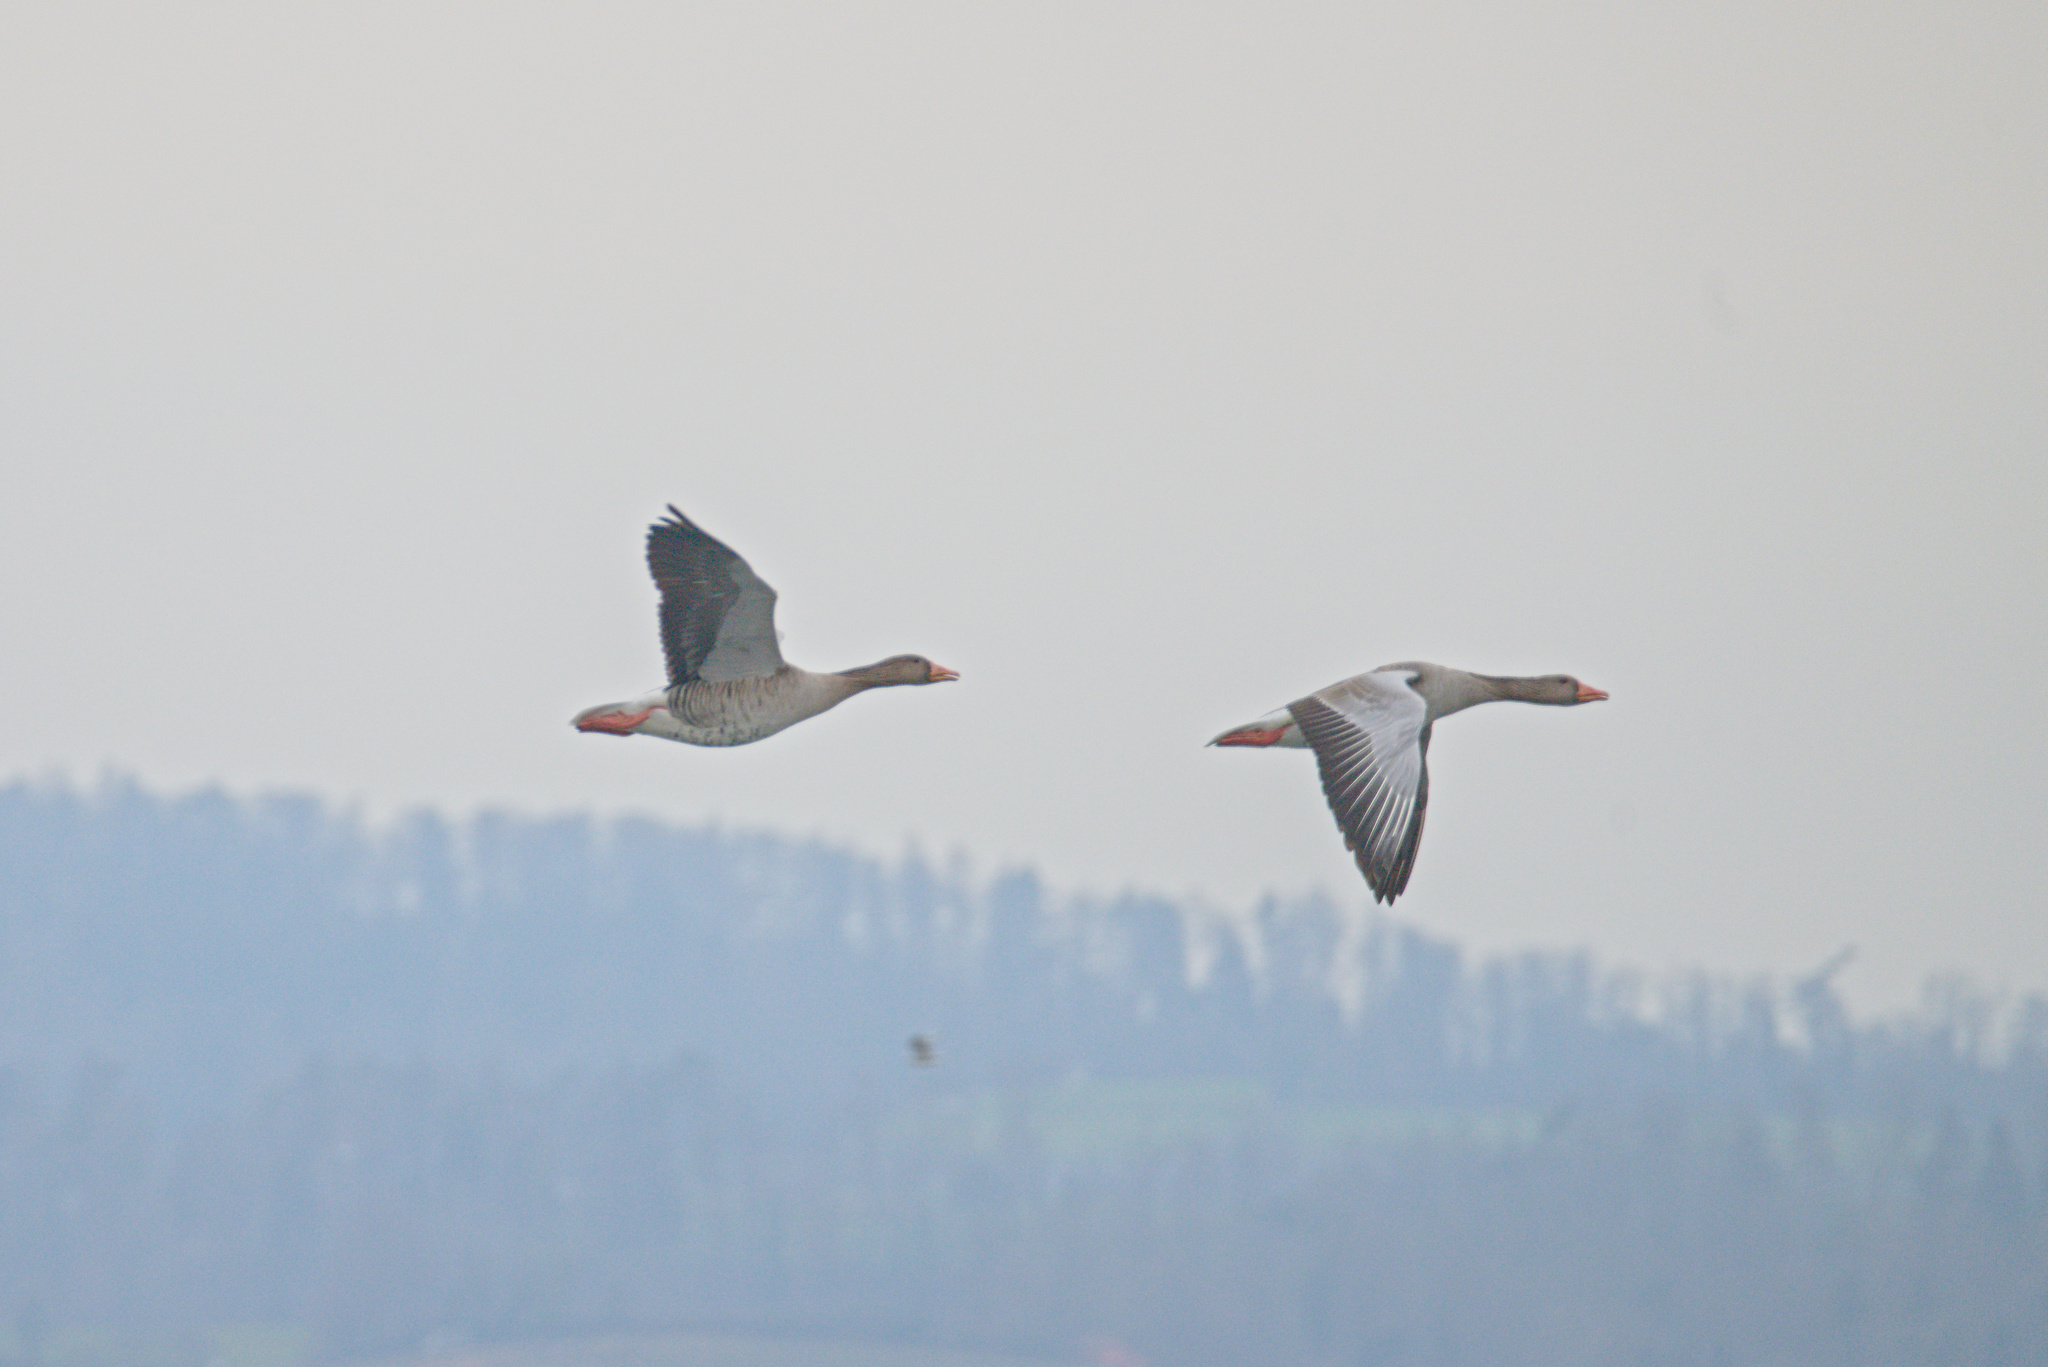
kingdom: Animalia
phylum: Chordata
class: Aves
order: Anseriformes
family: Anatidae
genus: Anser
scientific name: Anser anser
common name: Greylag goose
